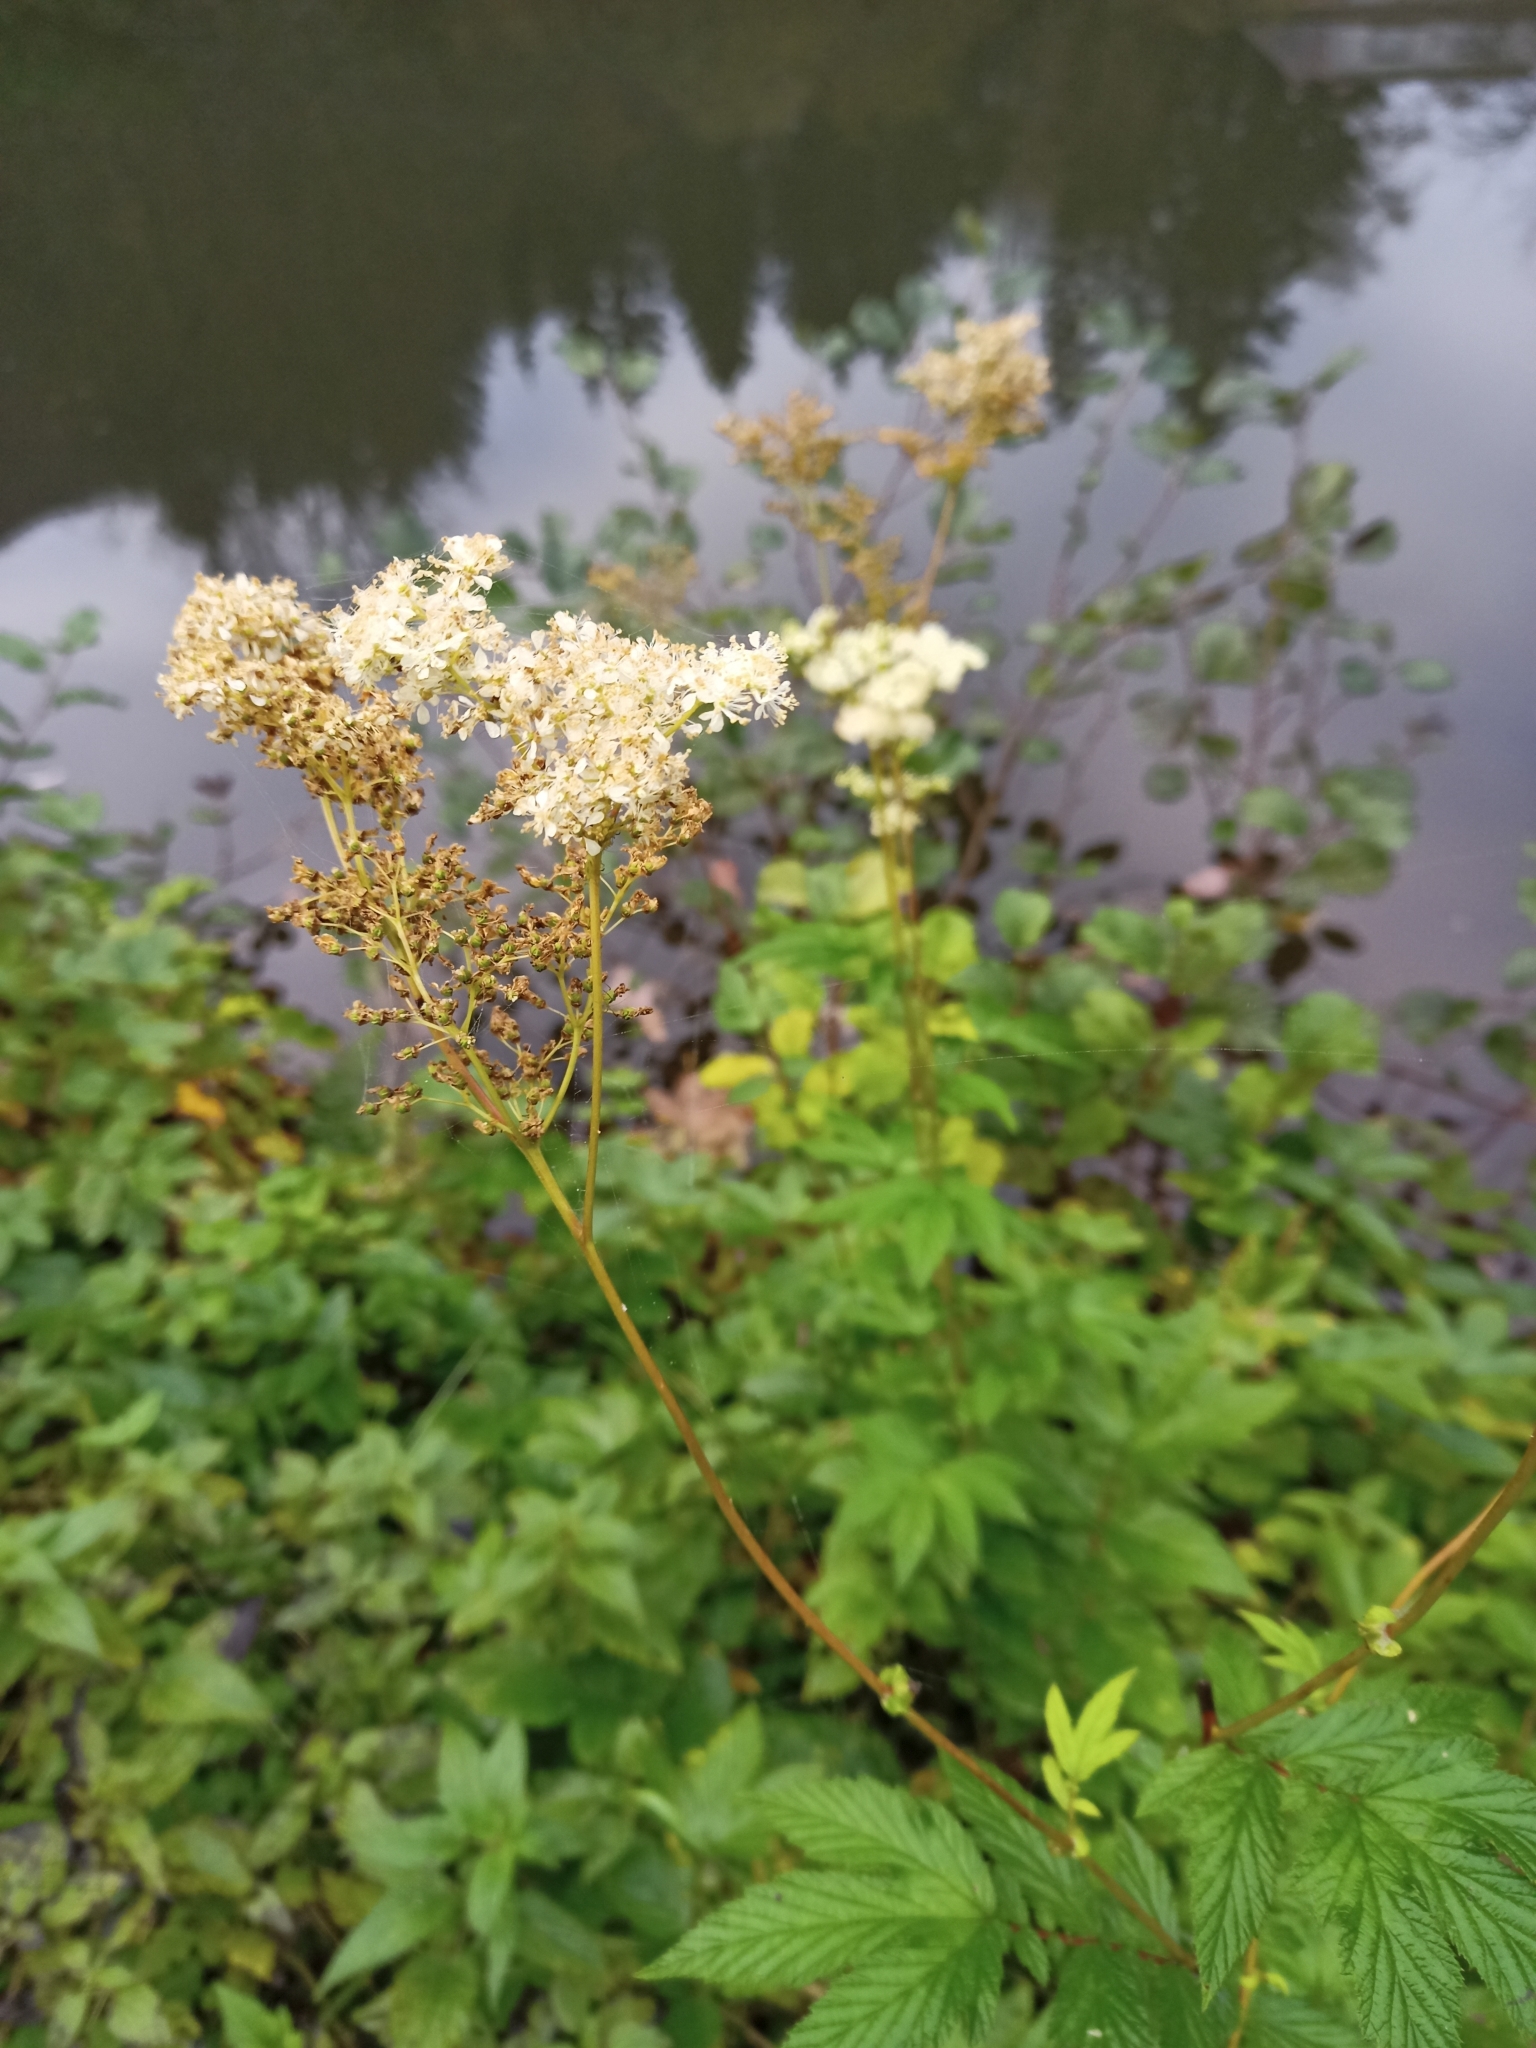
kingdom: Plantae
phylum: Tracheophyta
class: Magnoliopsida
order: Rosales
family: Rosaceae
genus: Filipendula
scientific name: Filipendula ulmaria
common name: Meadowsweet
